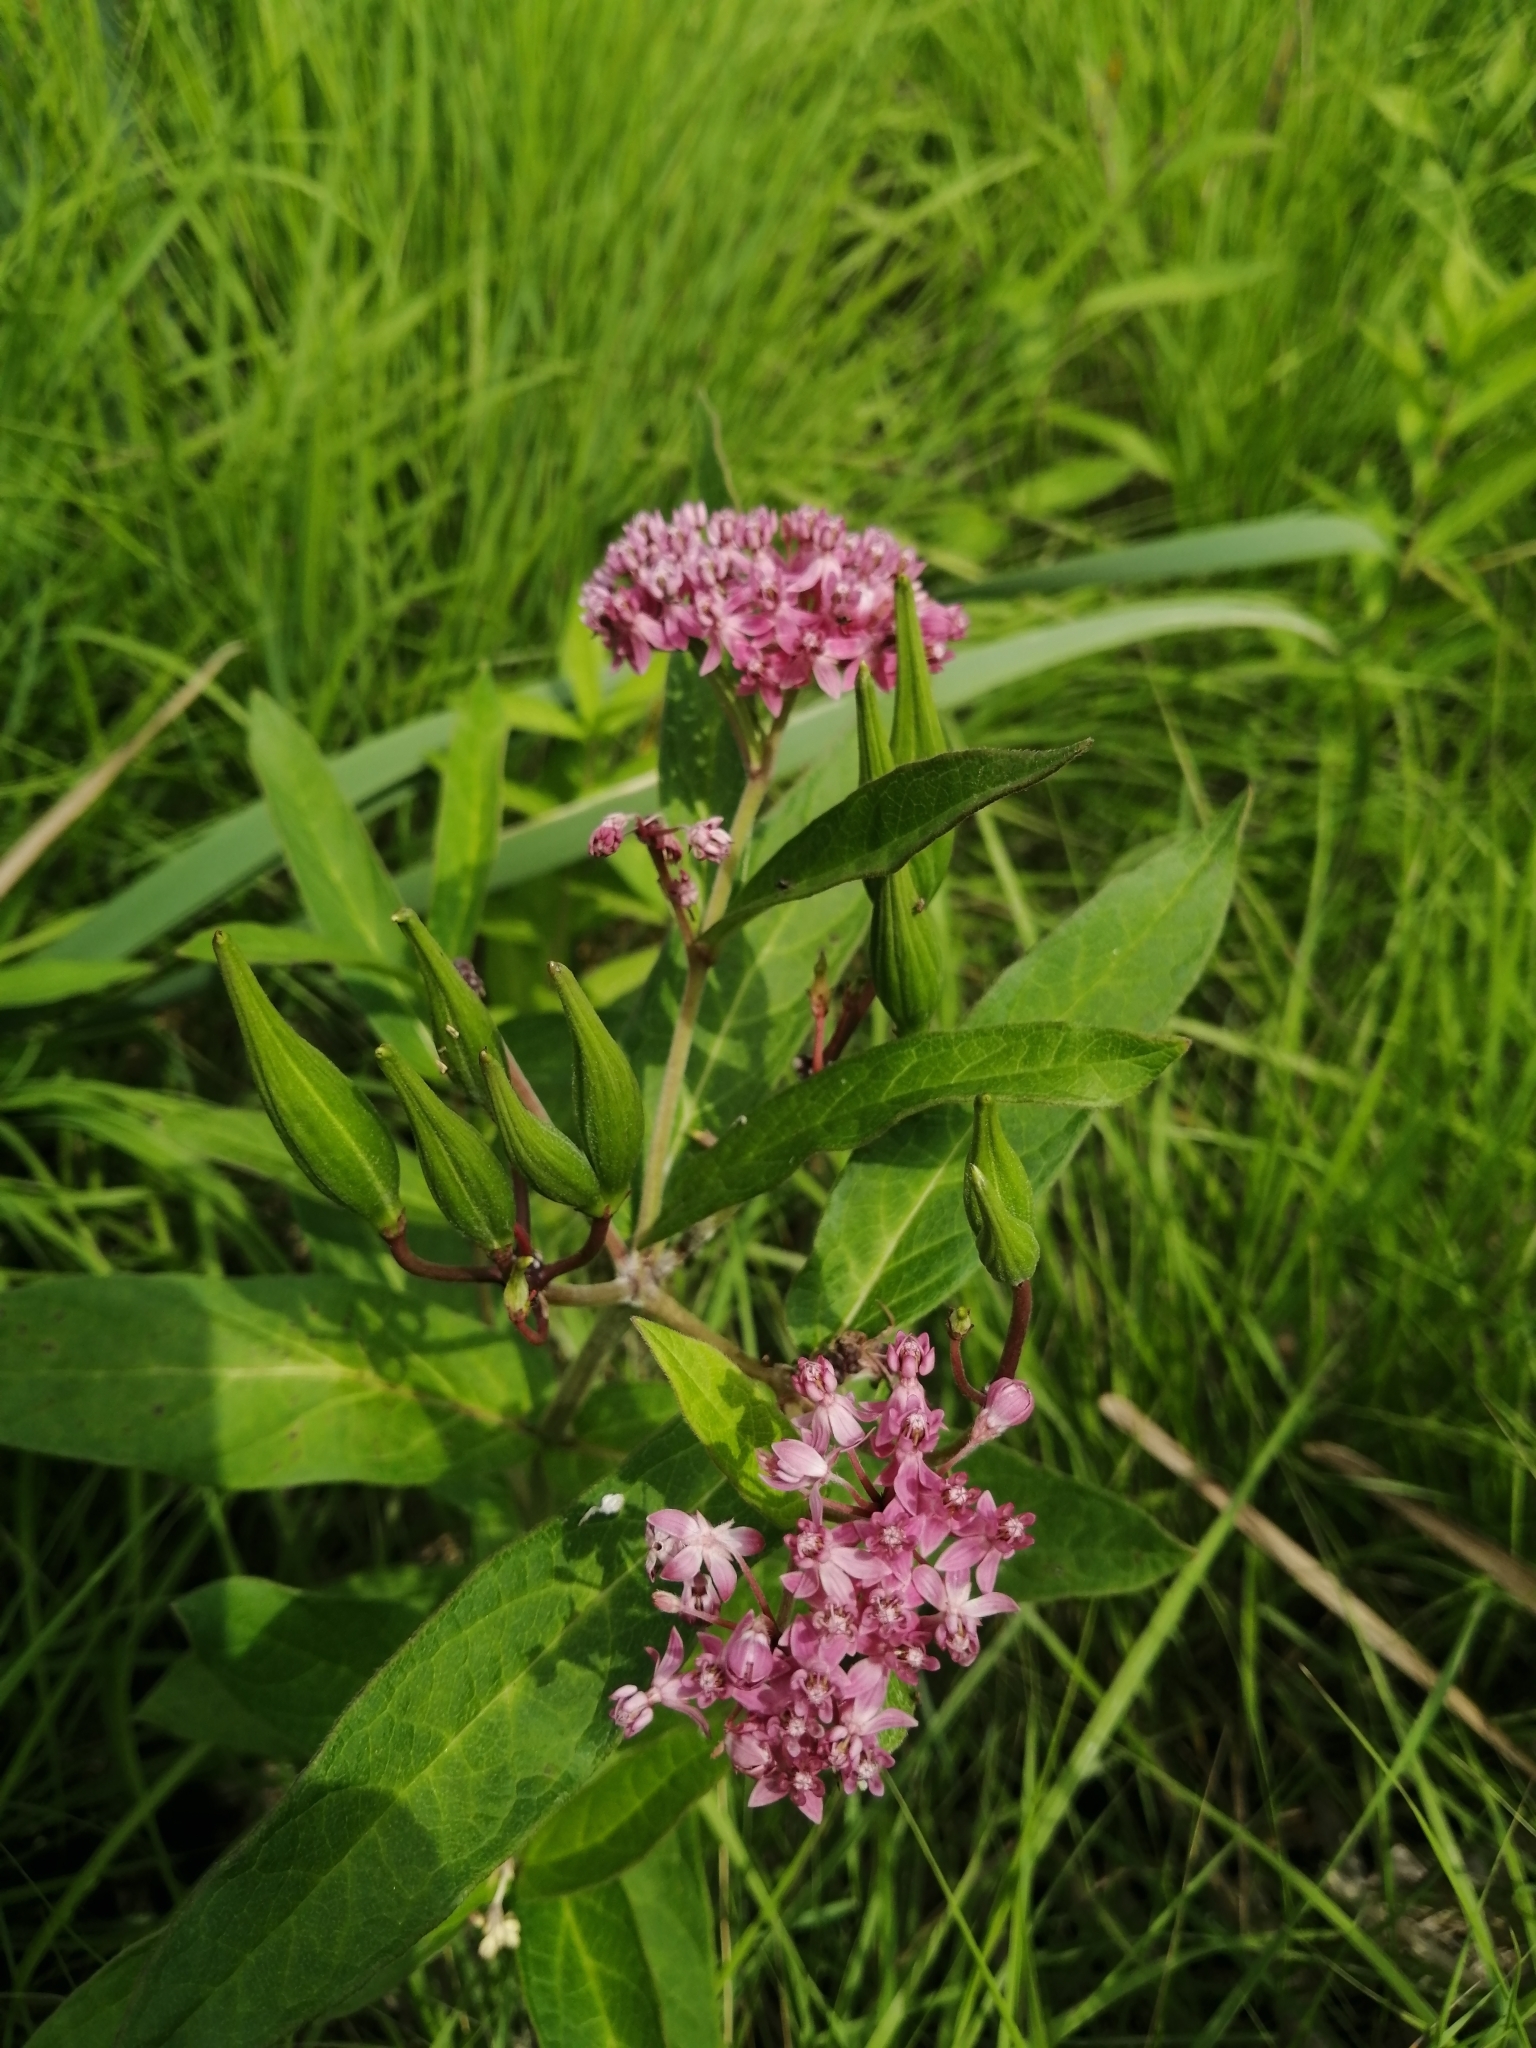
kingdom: Plantae
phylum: Tracheophyta
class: Magnoliopsida
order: Gentianales
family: Apocynaceae
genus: Asclepias
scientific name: Asclepias incarnata
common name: Swamp milkweed
